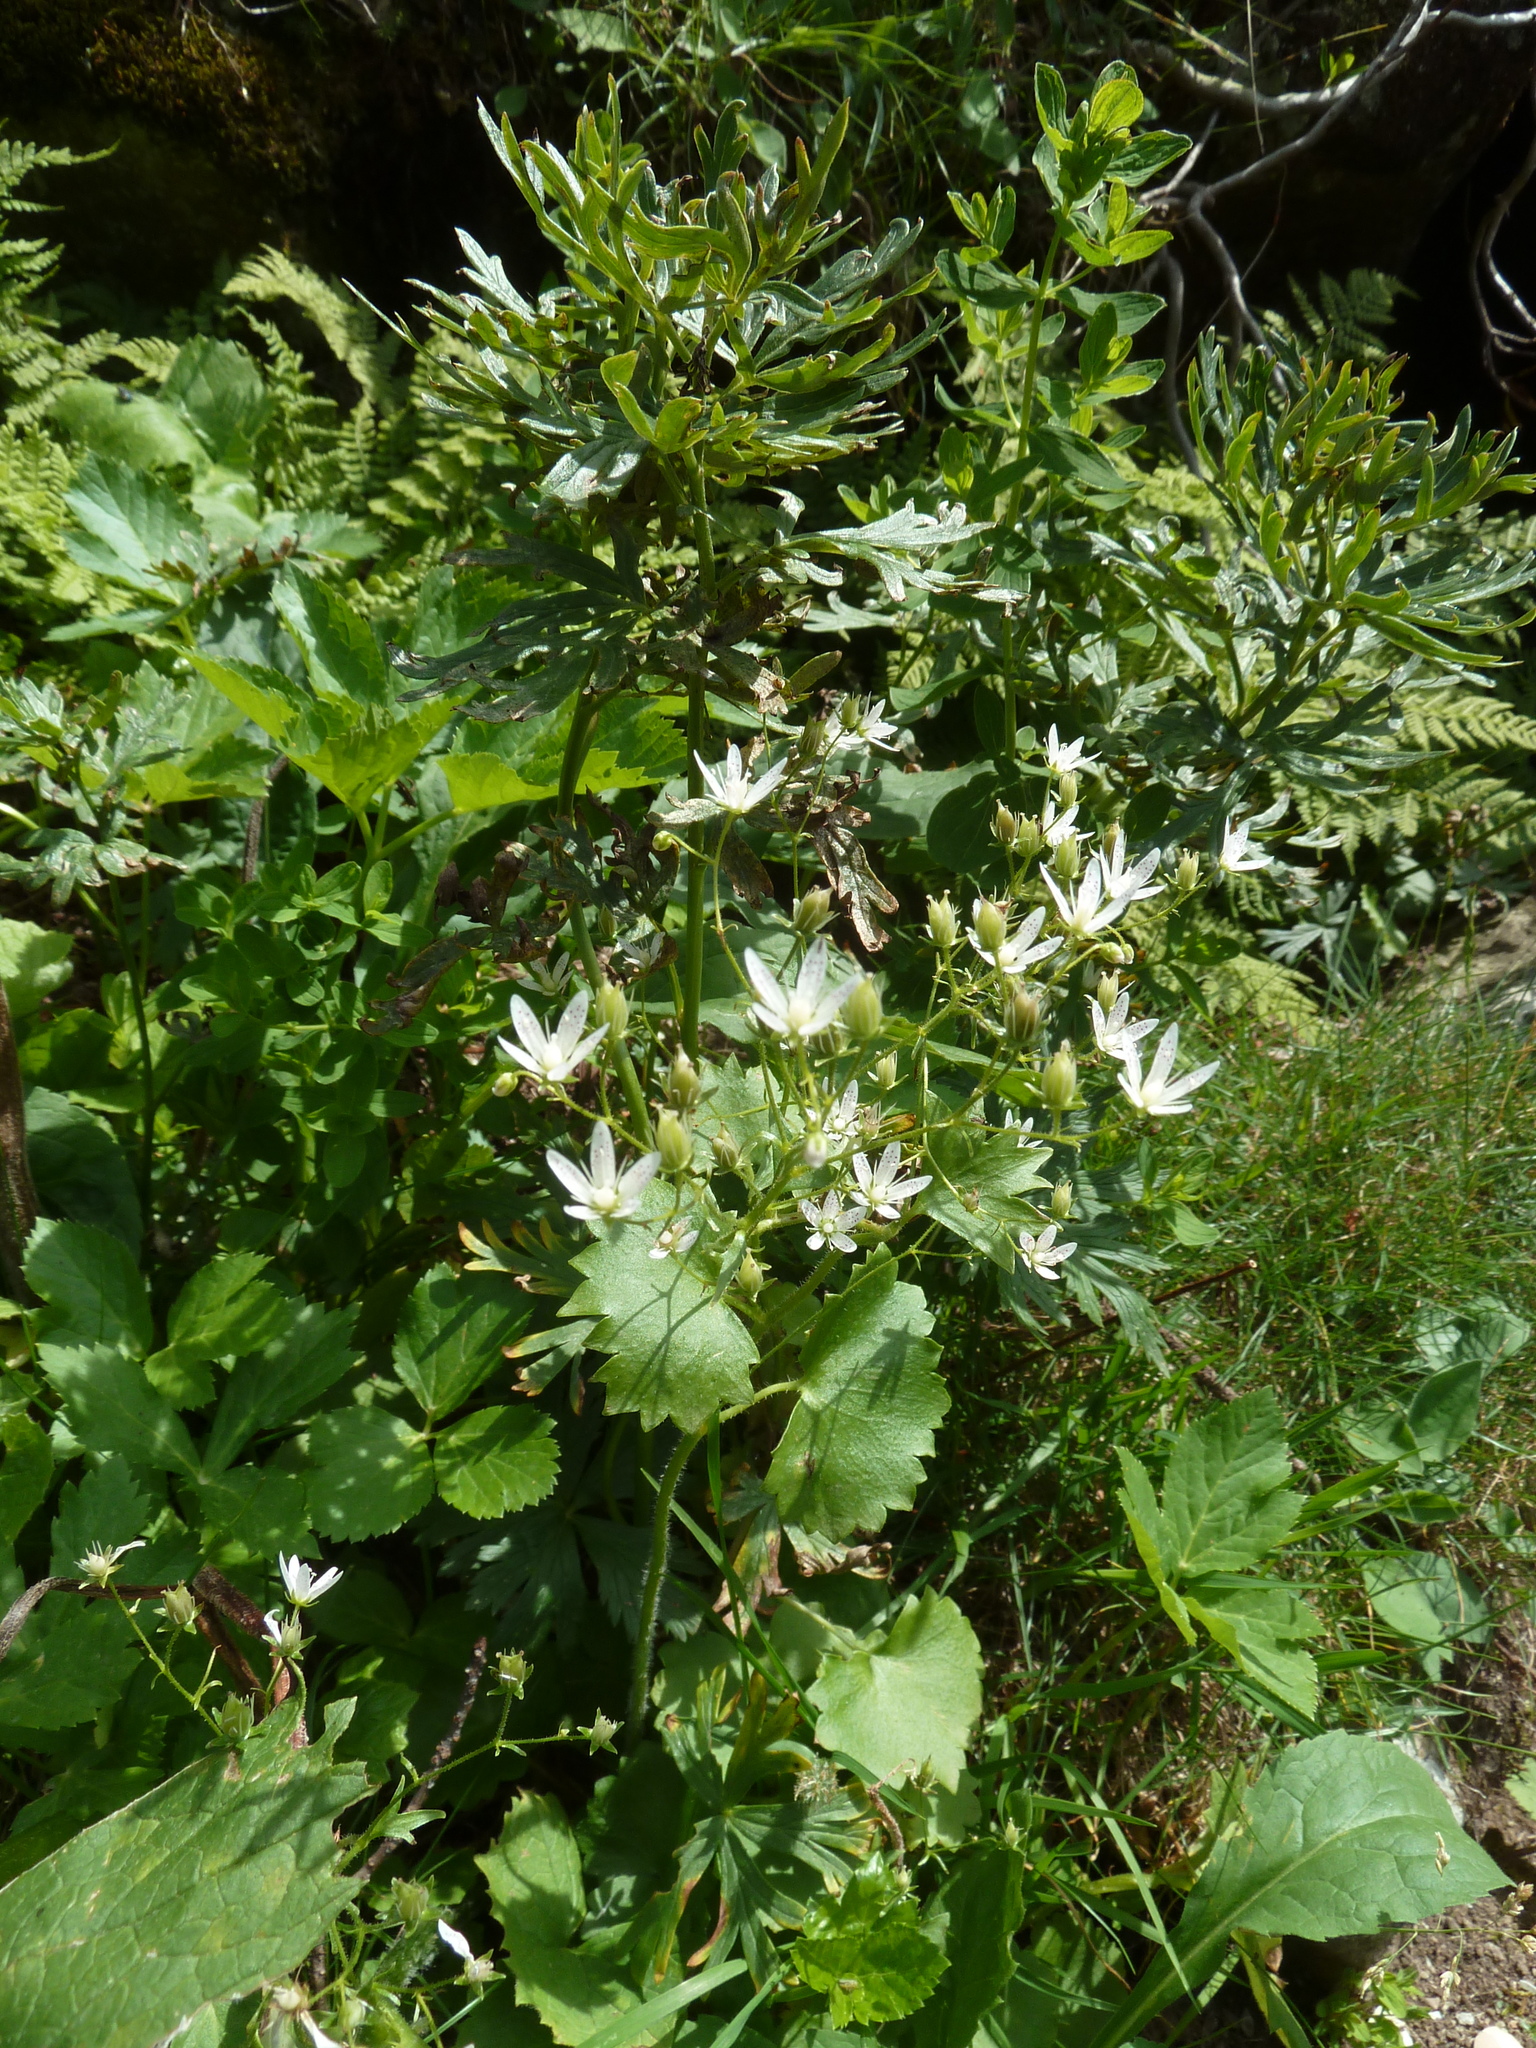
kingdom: Plantae
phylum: Tracheophyta
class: Magnoliopsida
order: Saxifragales
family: Saxifragaceae
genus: Saxifraga
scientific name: Saxifraga rotundifolia
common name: Round-leaved saxifrage
